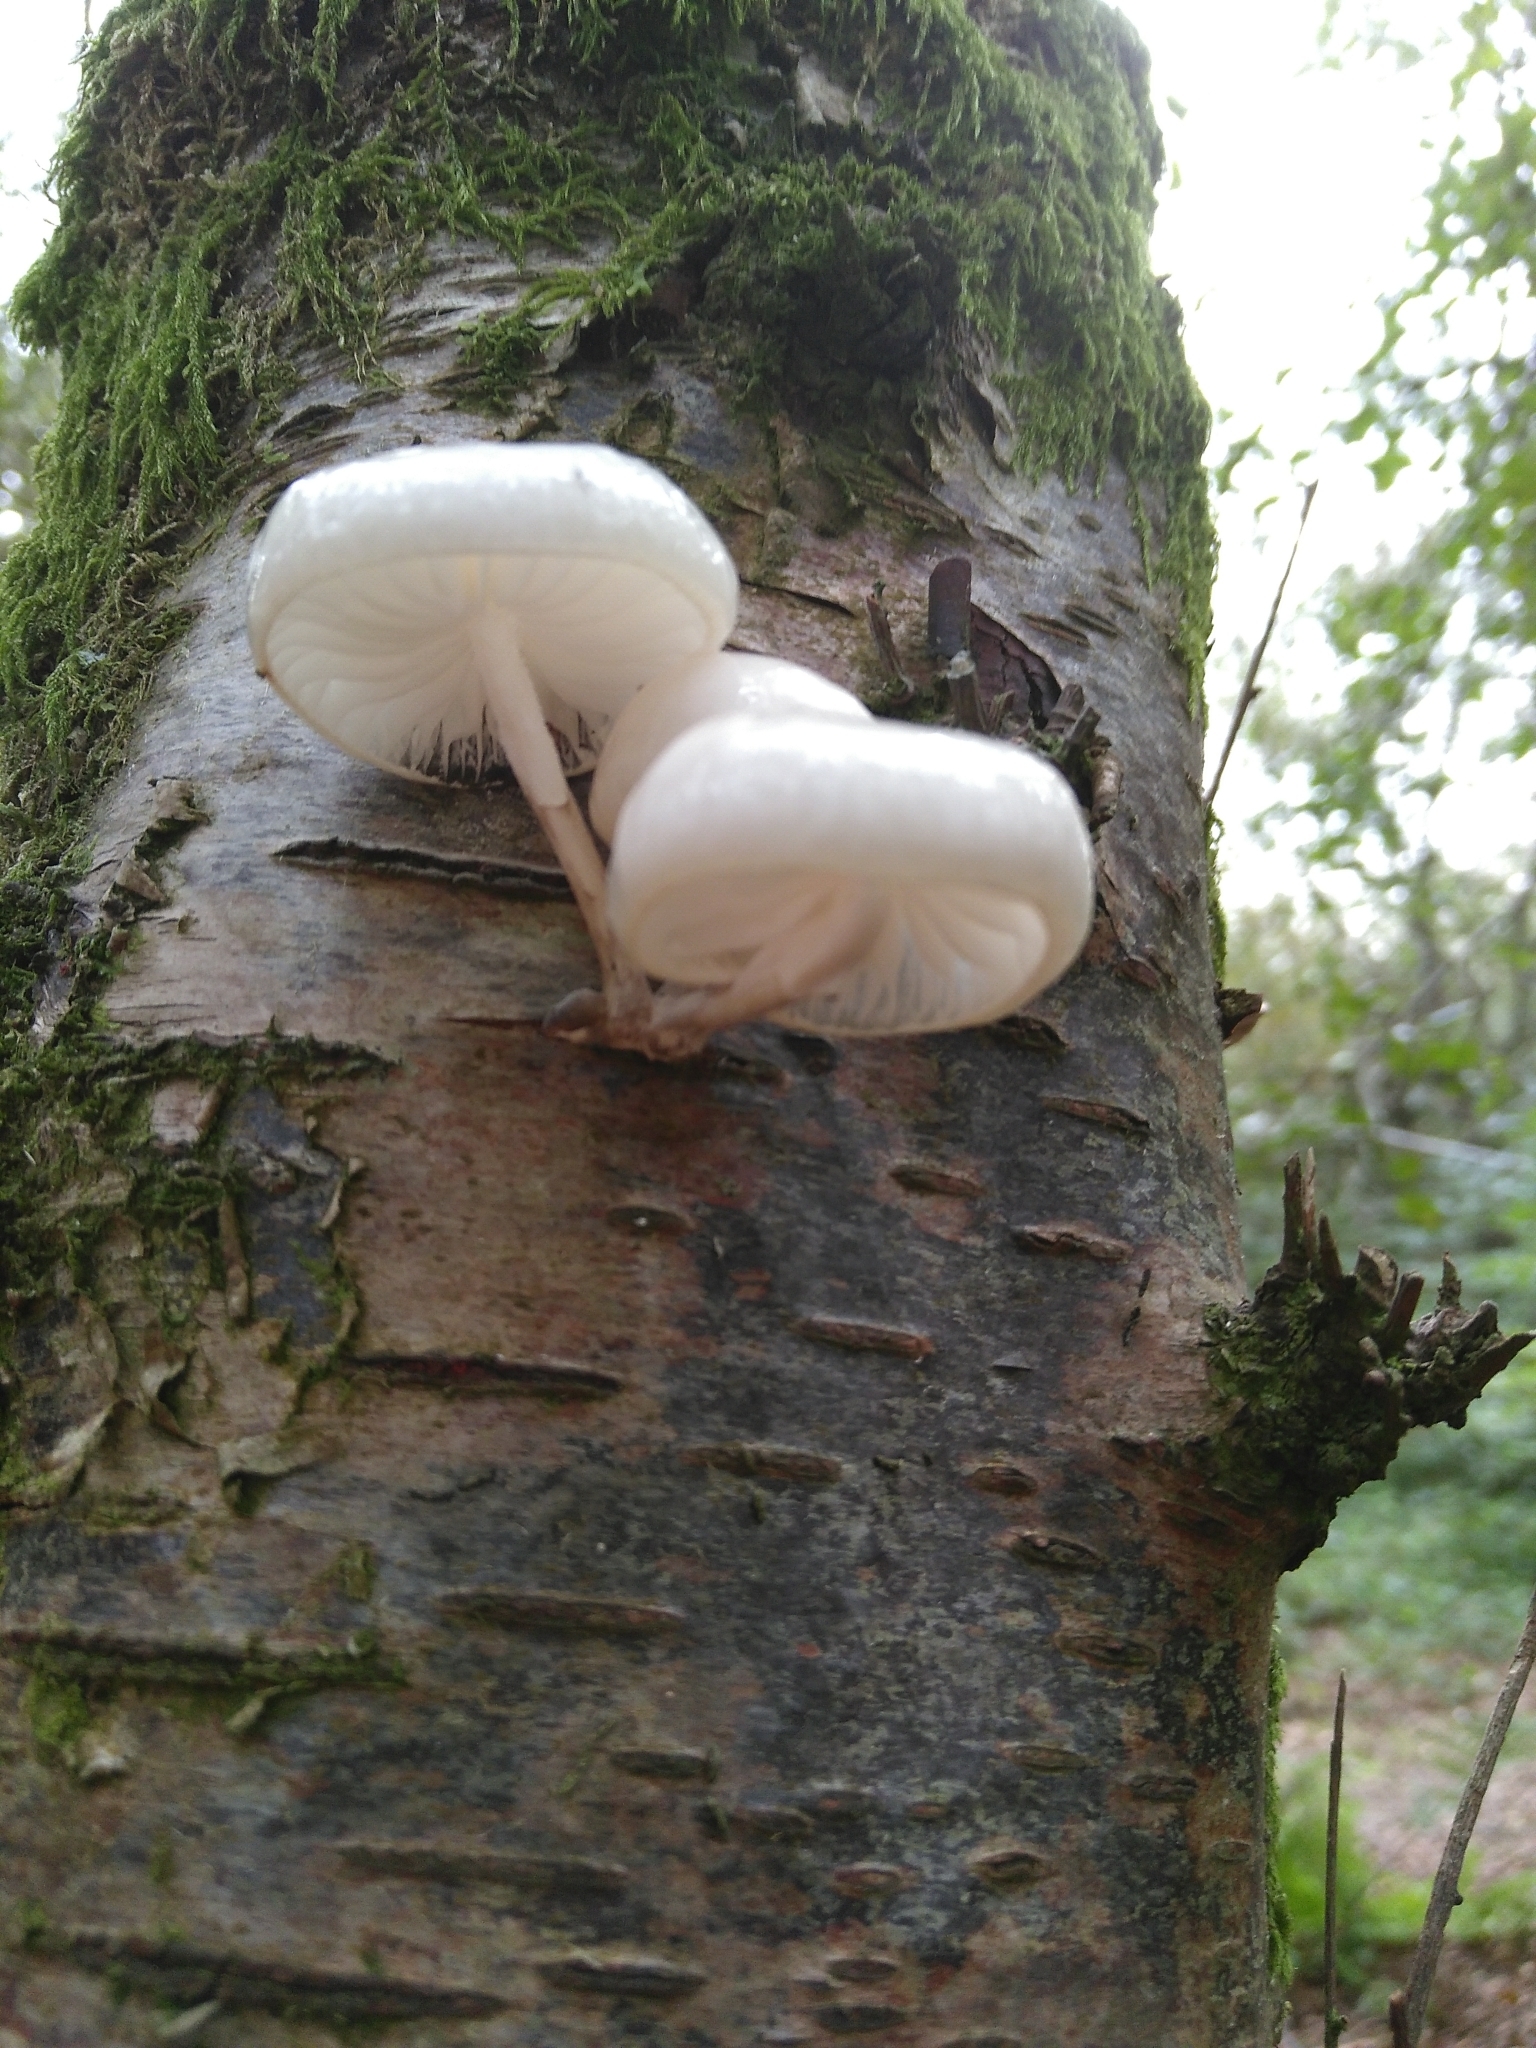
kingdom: Fungi
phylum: Basidiomycota
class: Agaricomycetes
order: Agaricales
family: Physalacriaceae
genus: Mucidula
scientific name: Mucidula mucida
